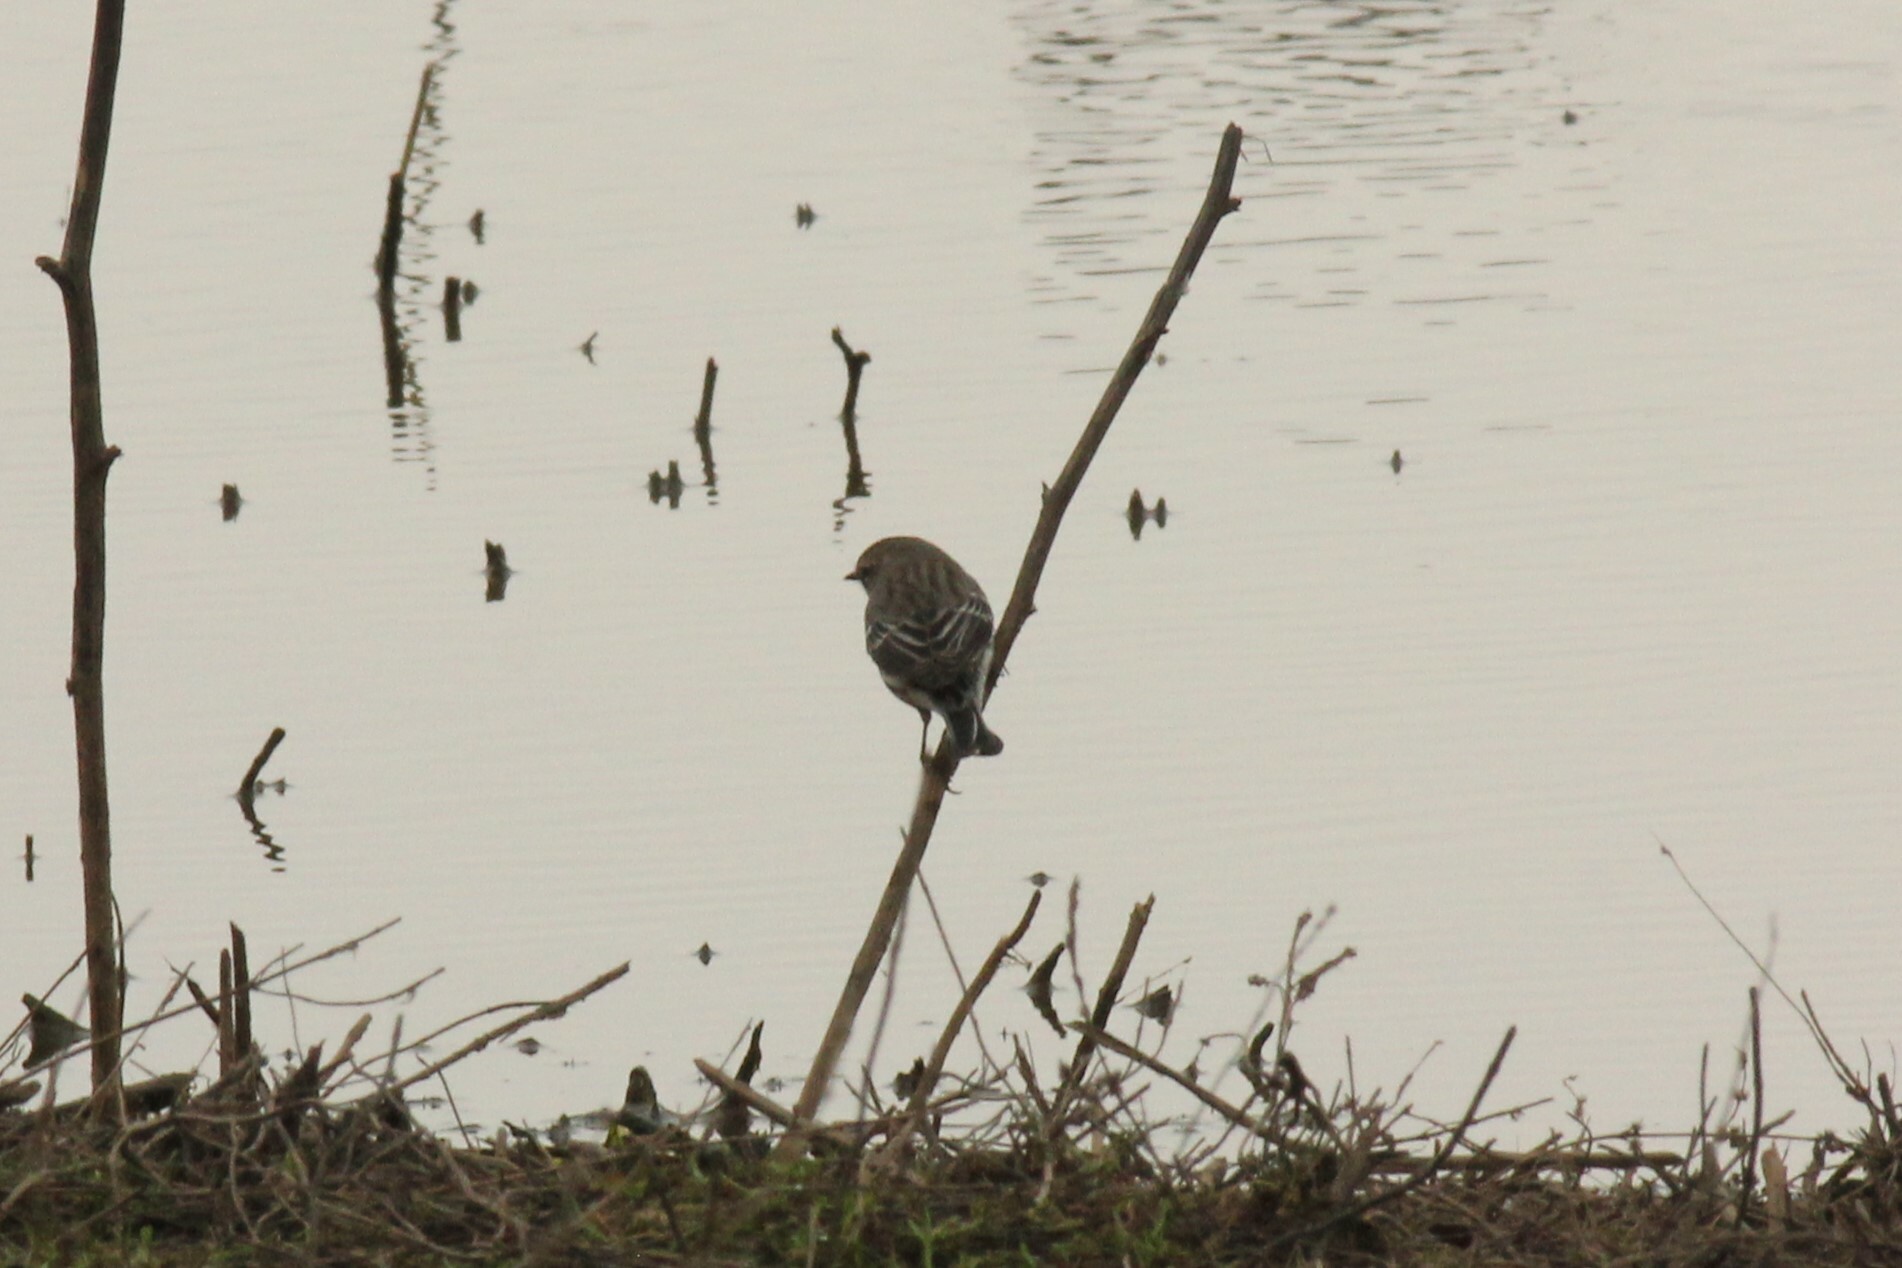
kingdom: Animalia
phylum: Chordata
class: Aves
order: Passeriformes
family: Parulidae
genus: Setophaga
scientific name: Setophaga coronata
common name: Myrtle warbler
